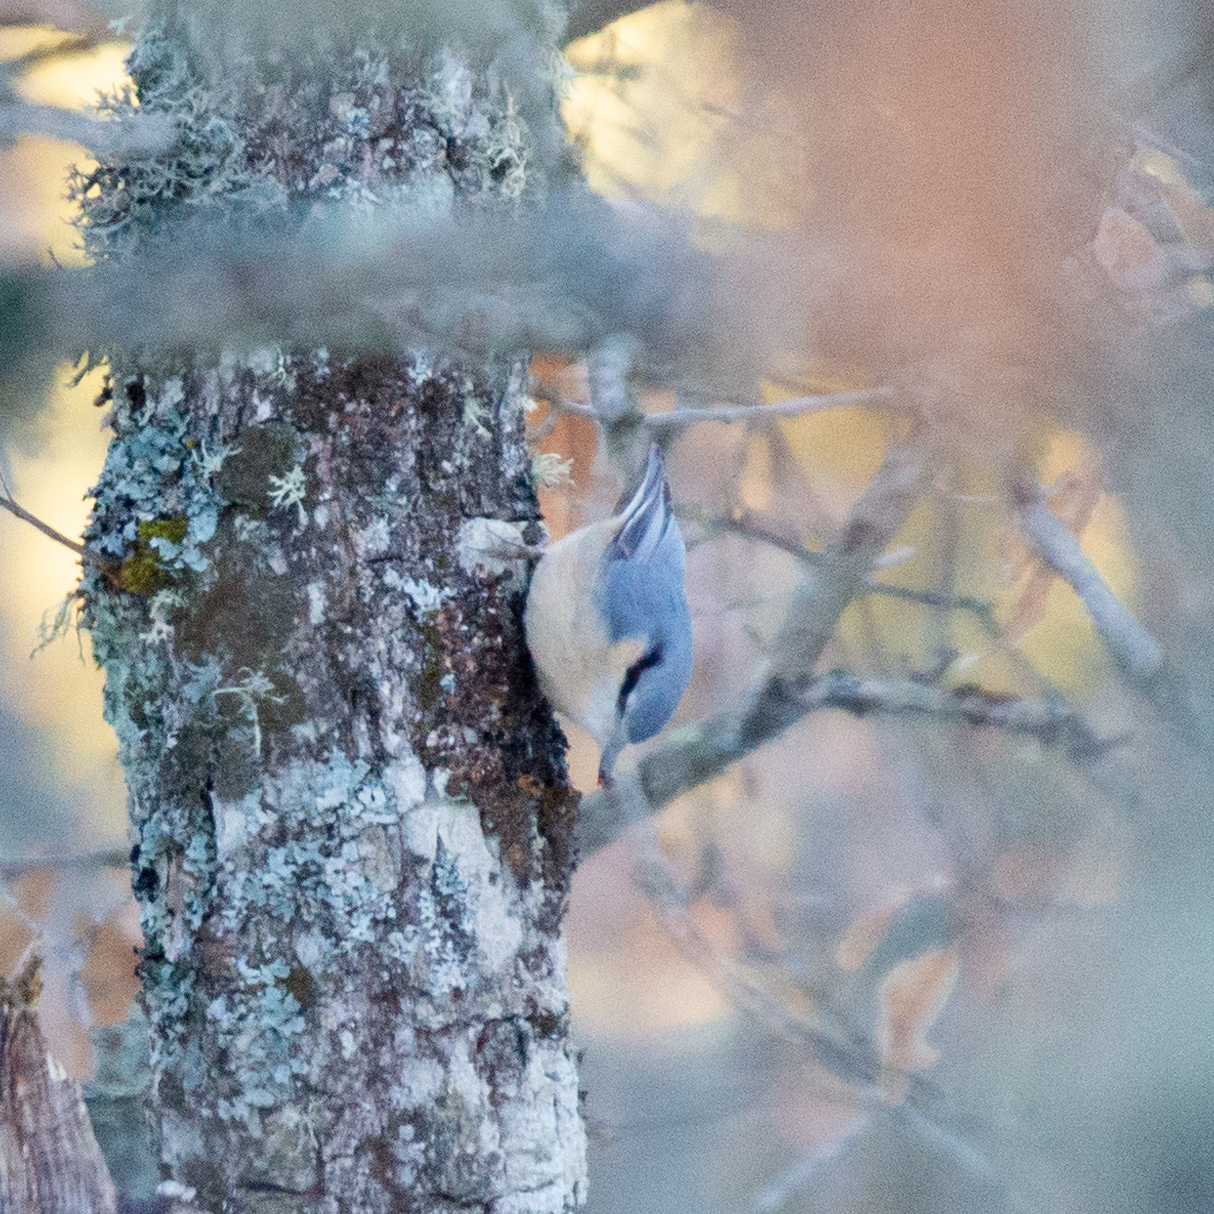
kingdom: Animalia
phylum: Chordata
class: Aves
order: Passeriformes
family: Sittidae
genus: Sitta
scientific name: Sitta europaea
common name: Eurasian nuthatch
